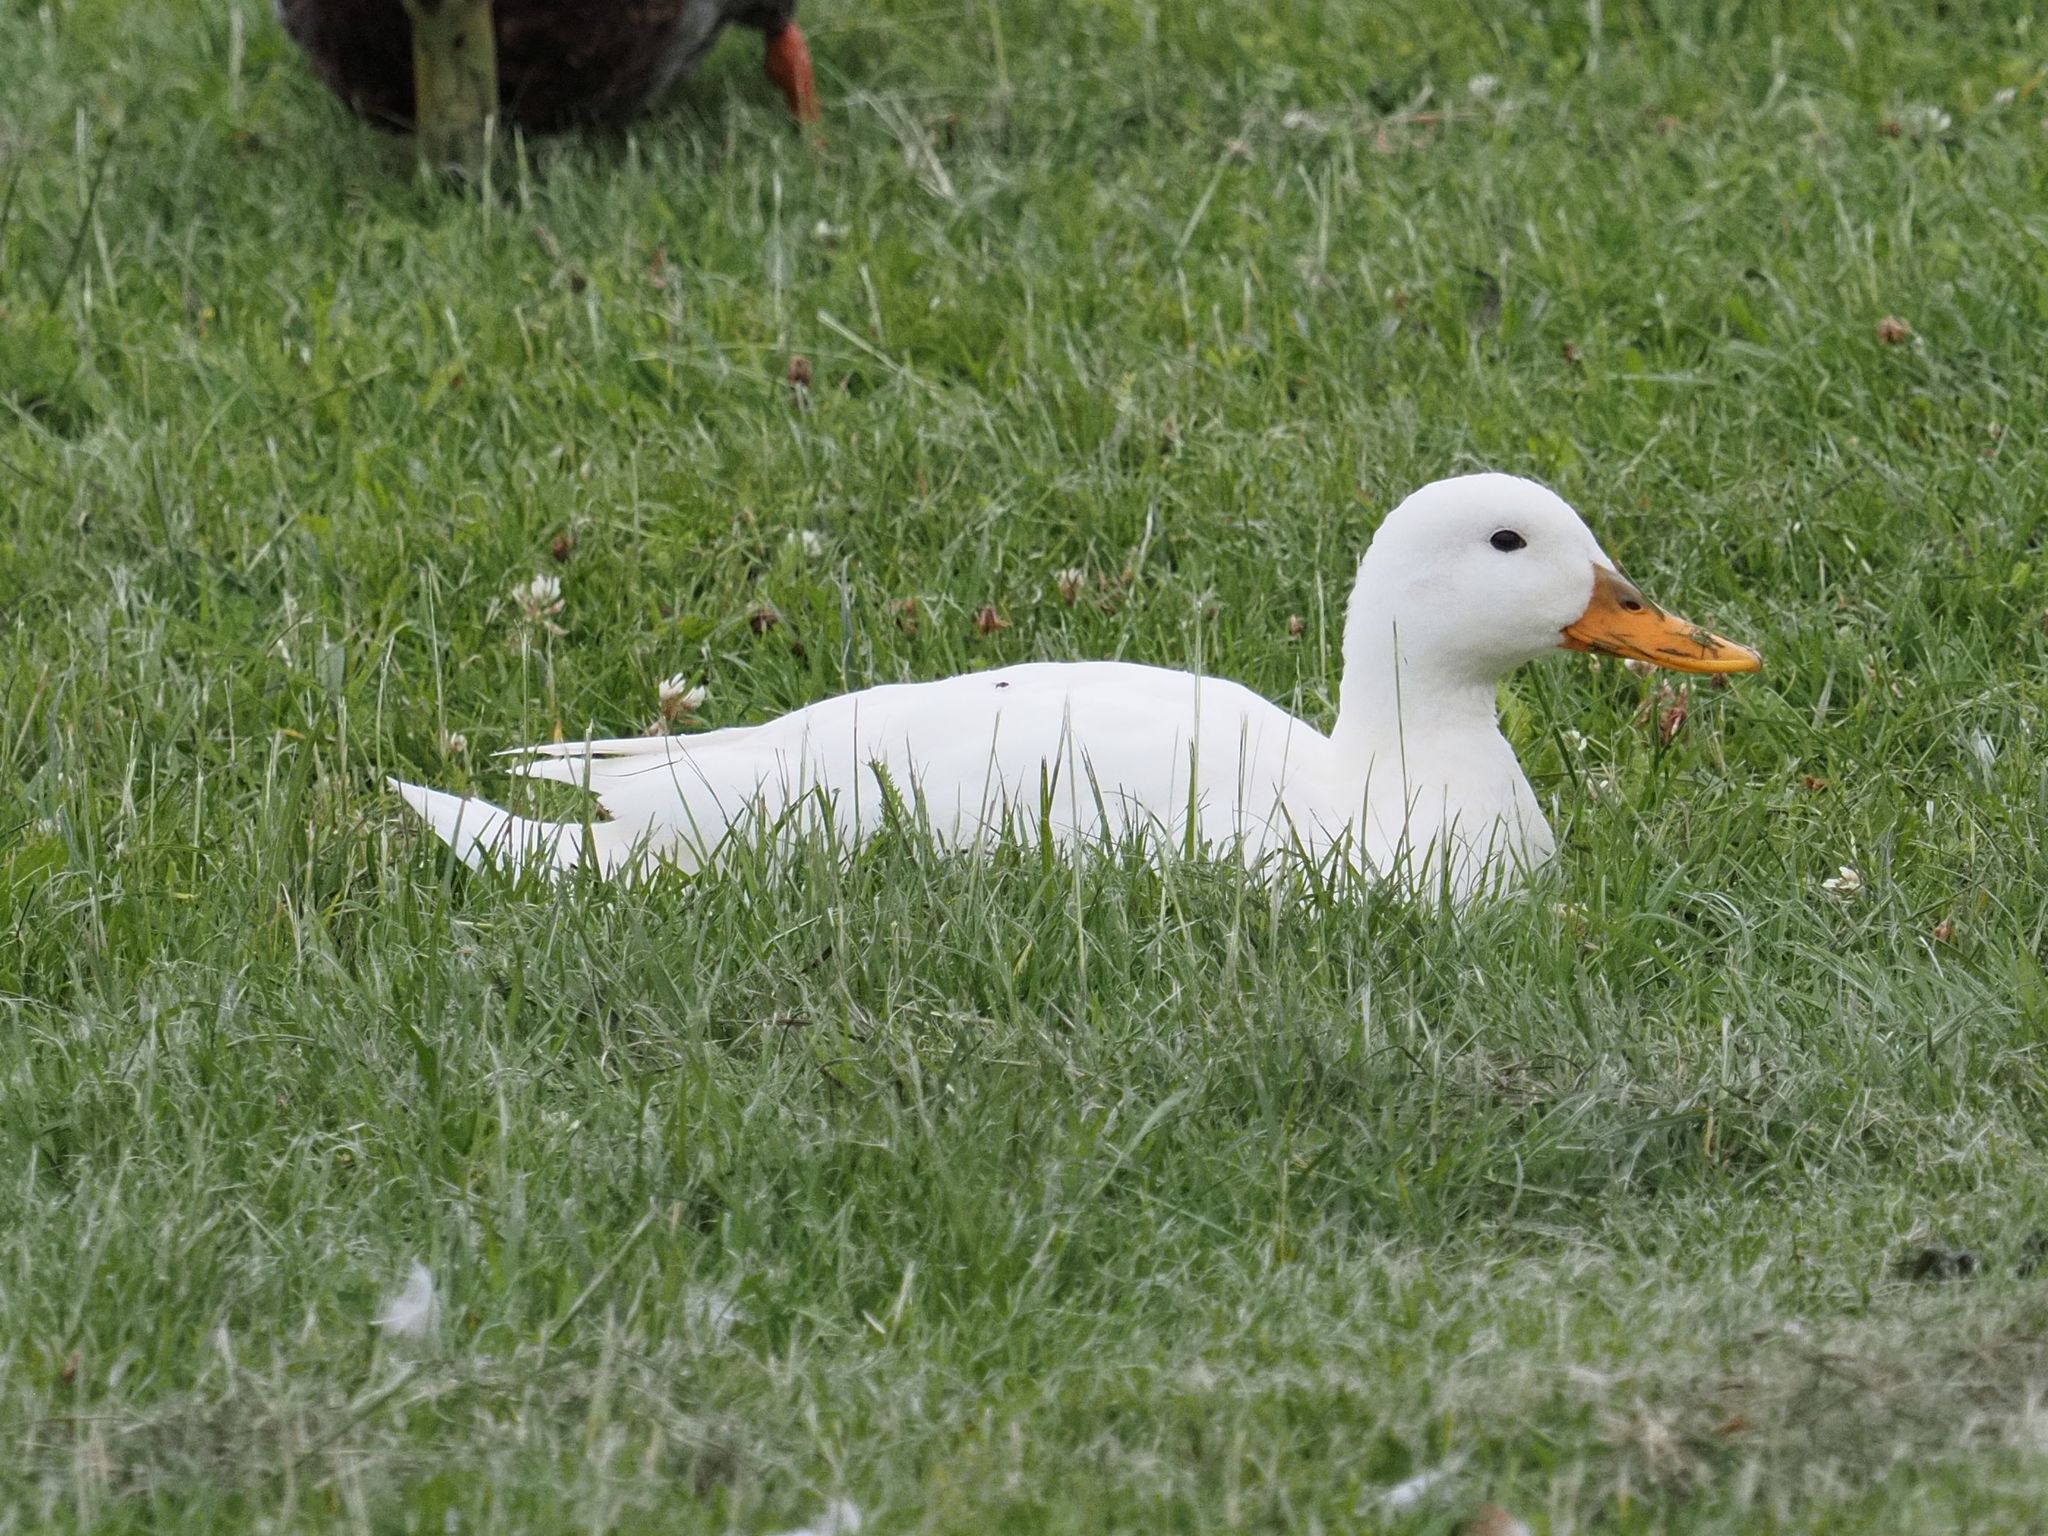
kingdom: Animalia
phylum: Chordata
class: Aves
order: Anseriformes
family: Anatidae
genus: Anas
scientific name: Anas platyrhynchos
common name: Mallard
